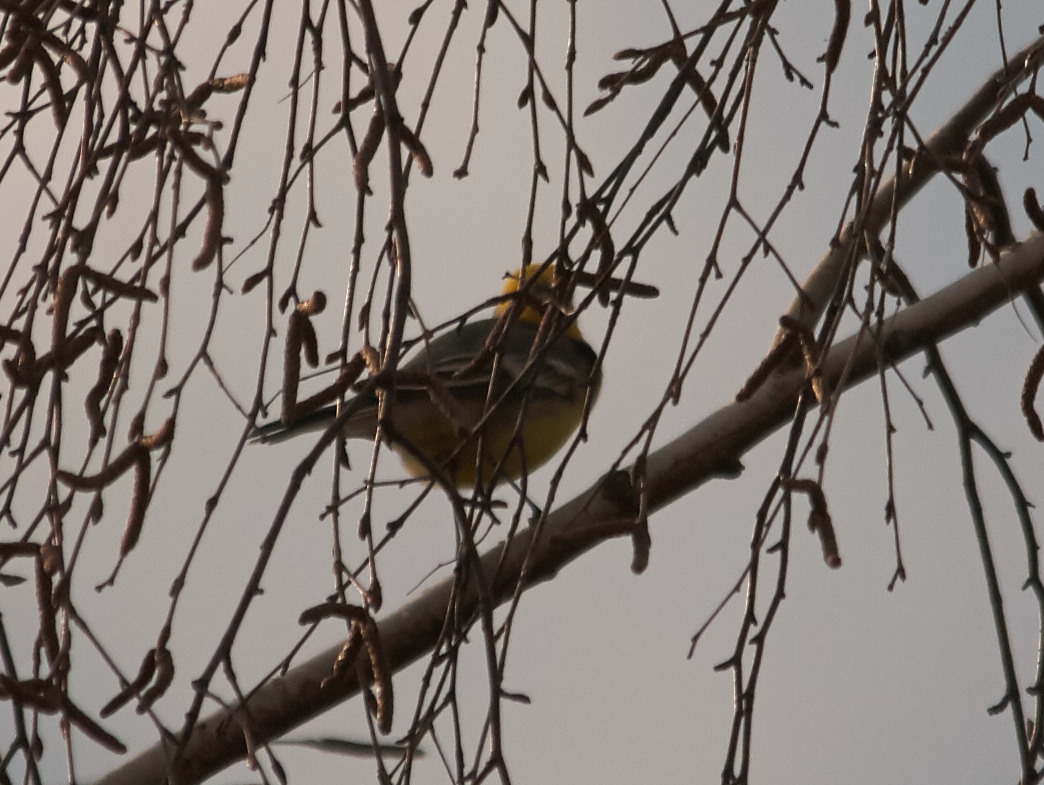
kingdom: Animalia
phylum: Chordata
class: Aves
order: Passeriformes
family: Motacillidae
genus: Motacilla
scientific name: Motacilla citreola
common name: Citrine wagtail
